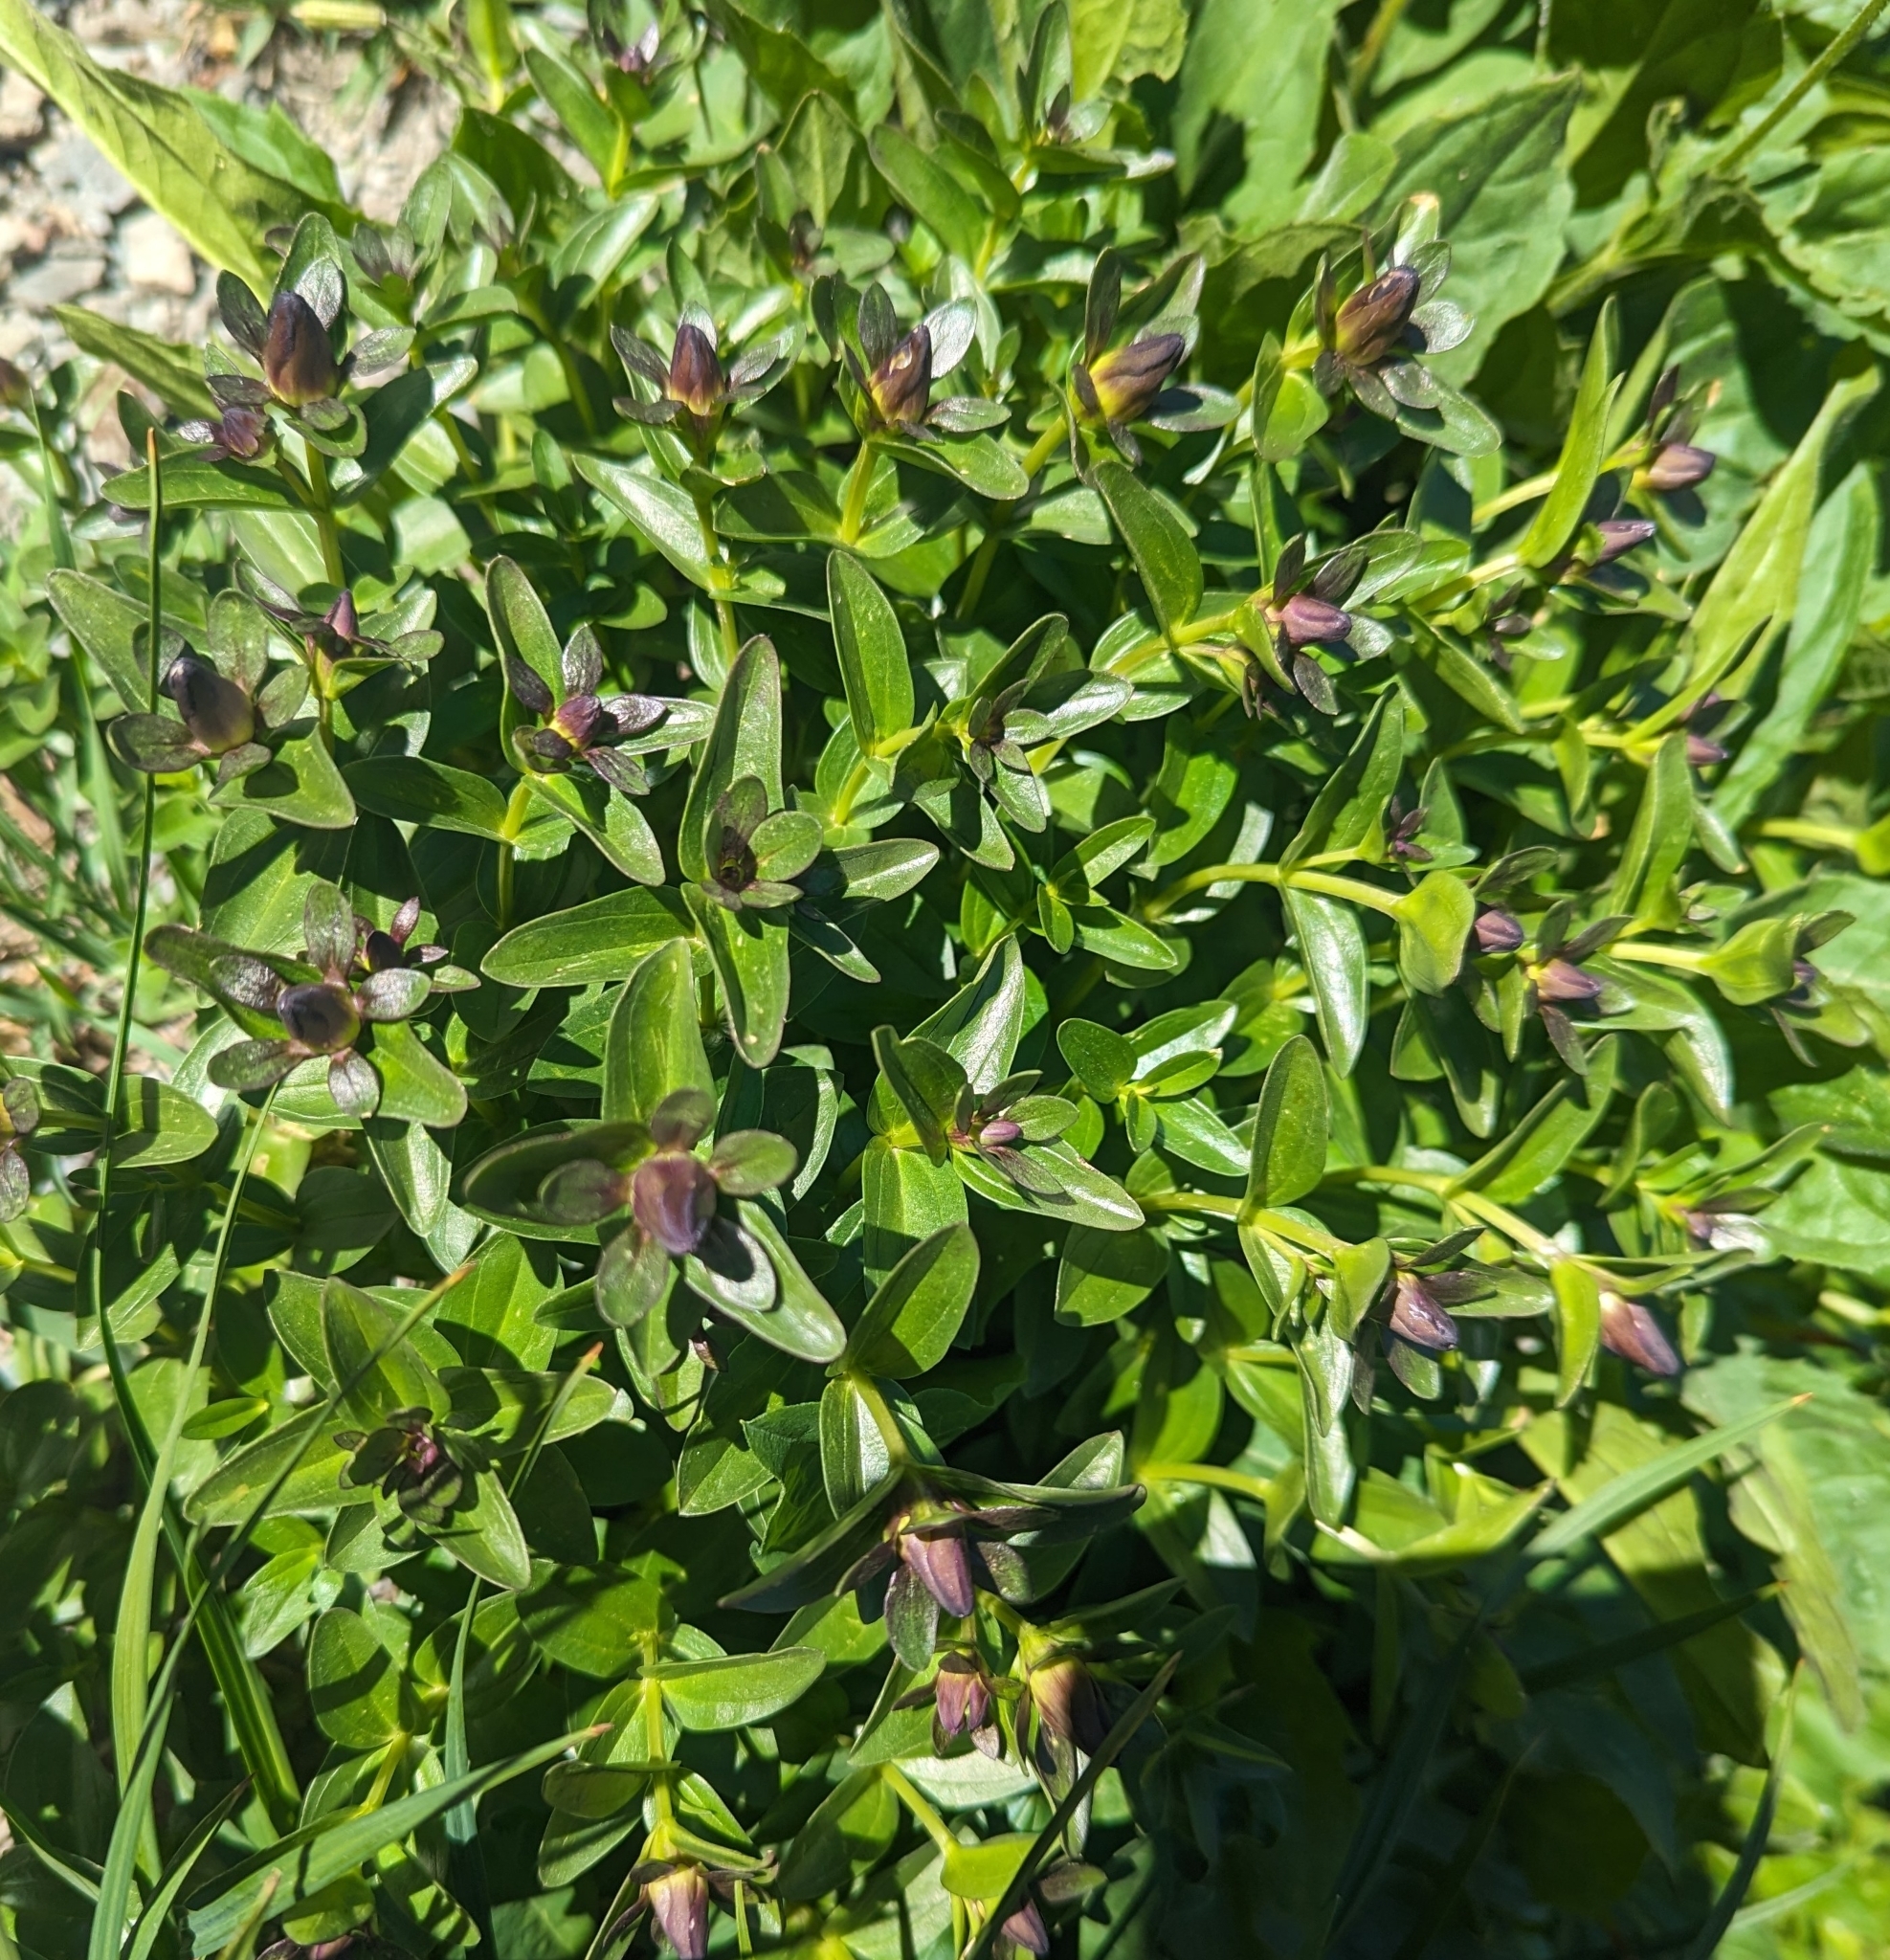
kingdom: Plantae
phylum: Tracheophyta
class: Magnoliopsida
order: Gentianales
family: Gentianaceae
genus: Gentiana
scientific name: Gentiana calycosa
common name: Rainier pleated gentian
